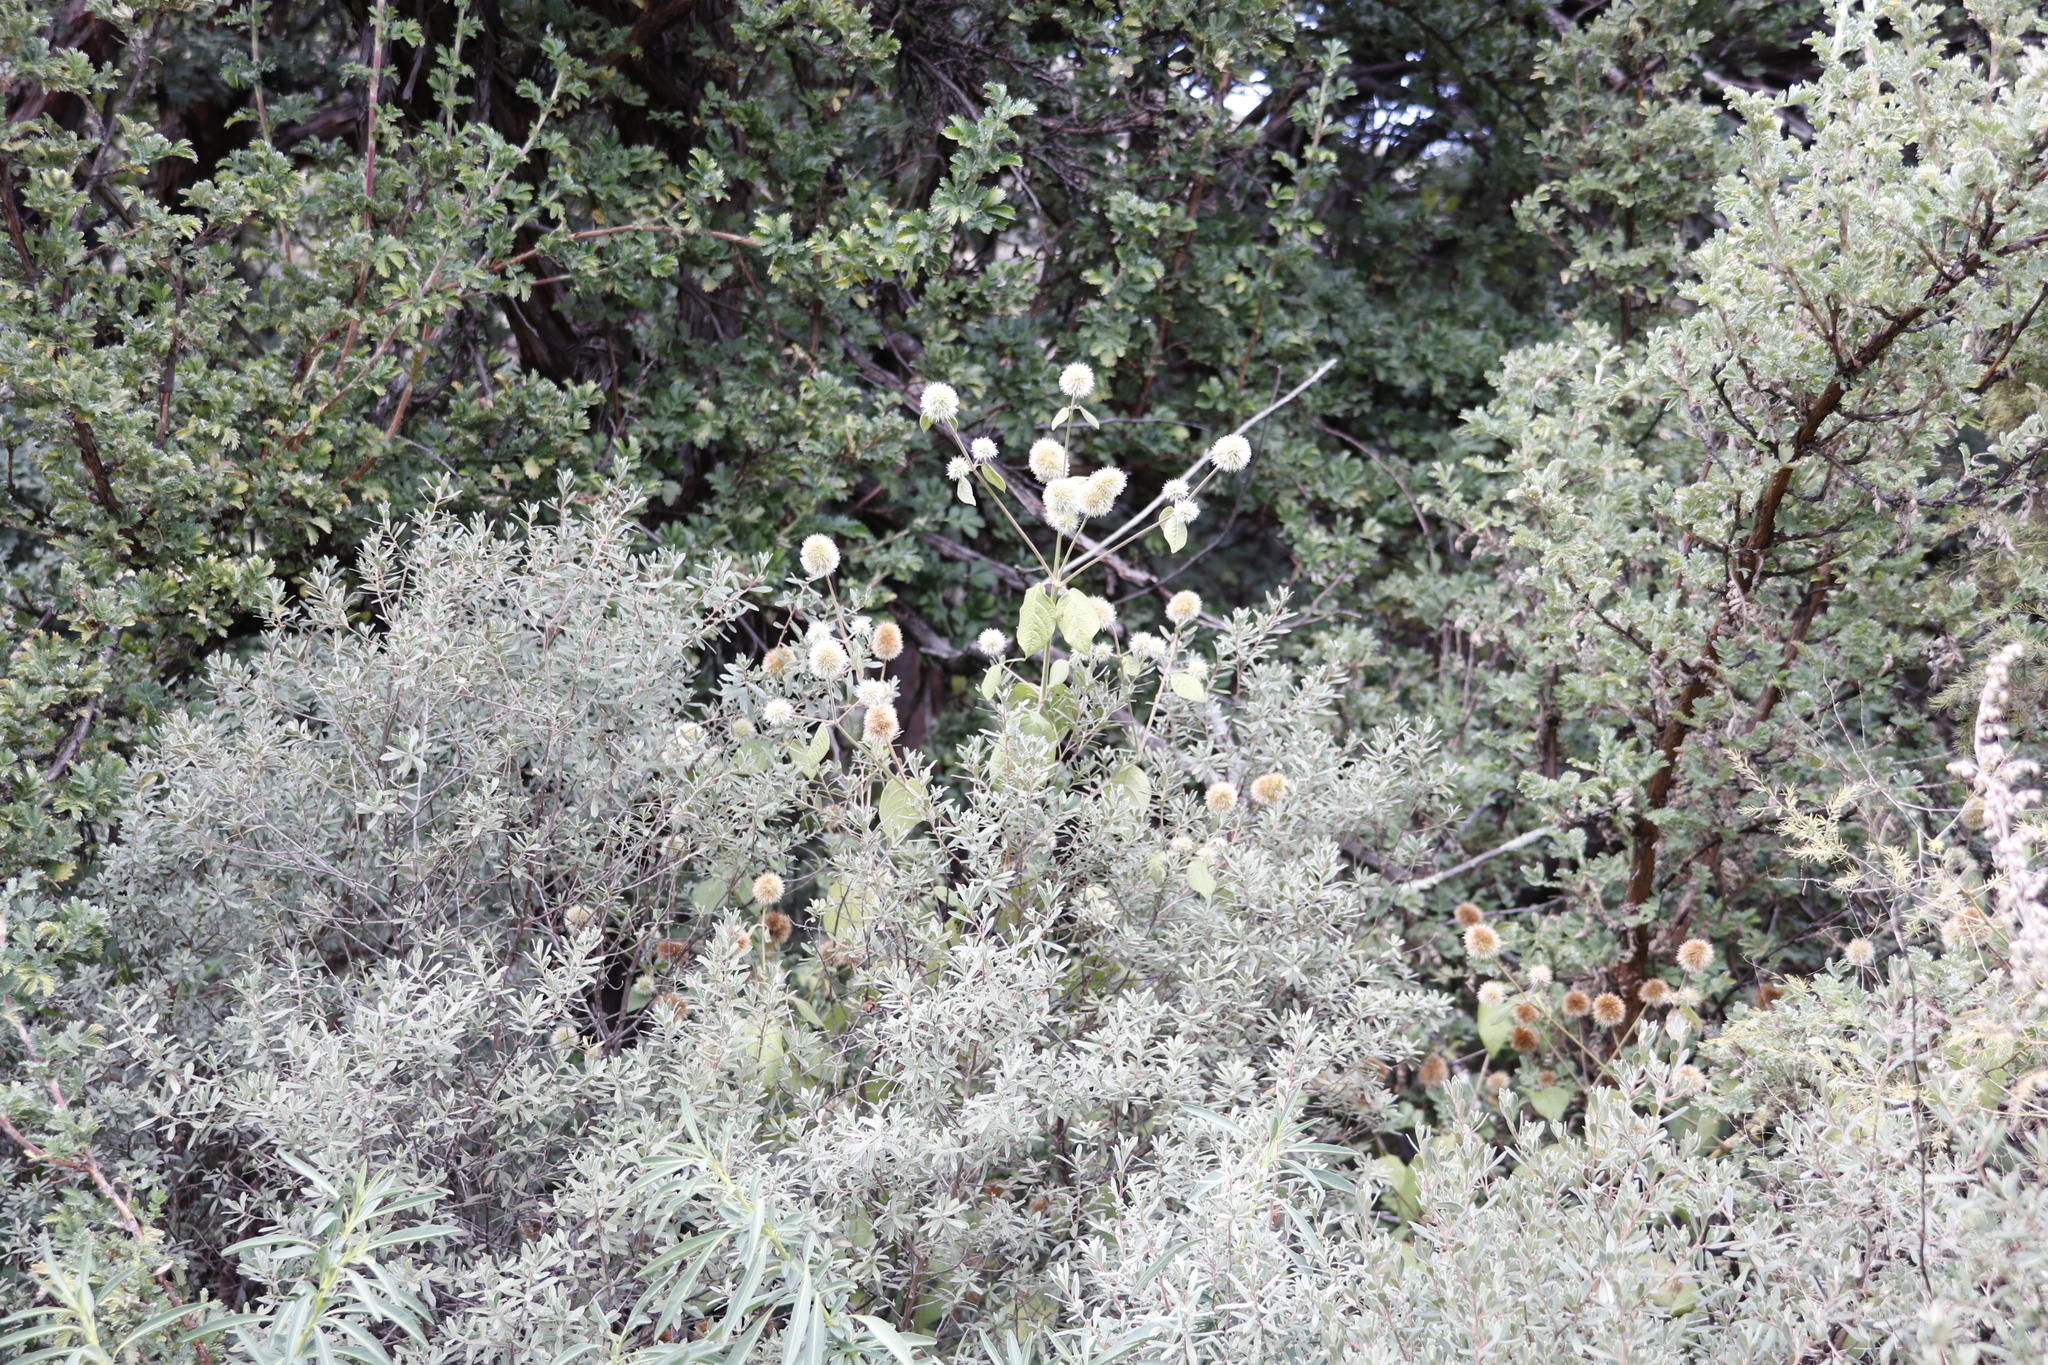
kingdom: Plantae
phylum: Tracheophyta
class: Magnoliopsida
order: Caryophyllales
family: Amaranthaceae
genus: Cyathula
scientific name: Cyathula uncinulata
